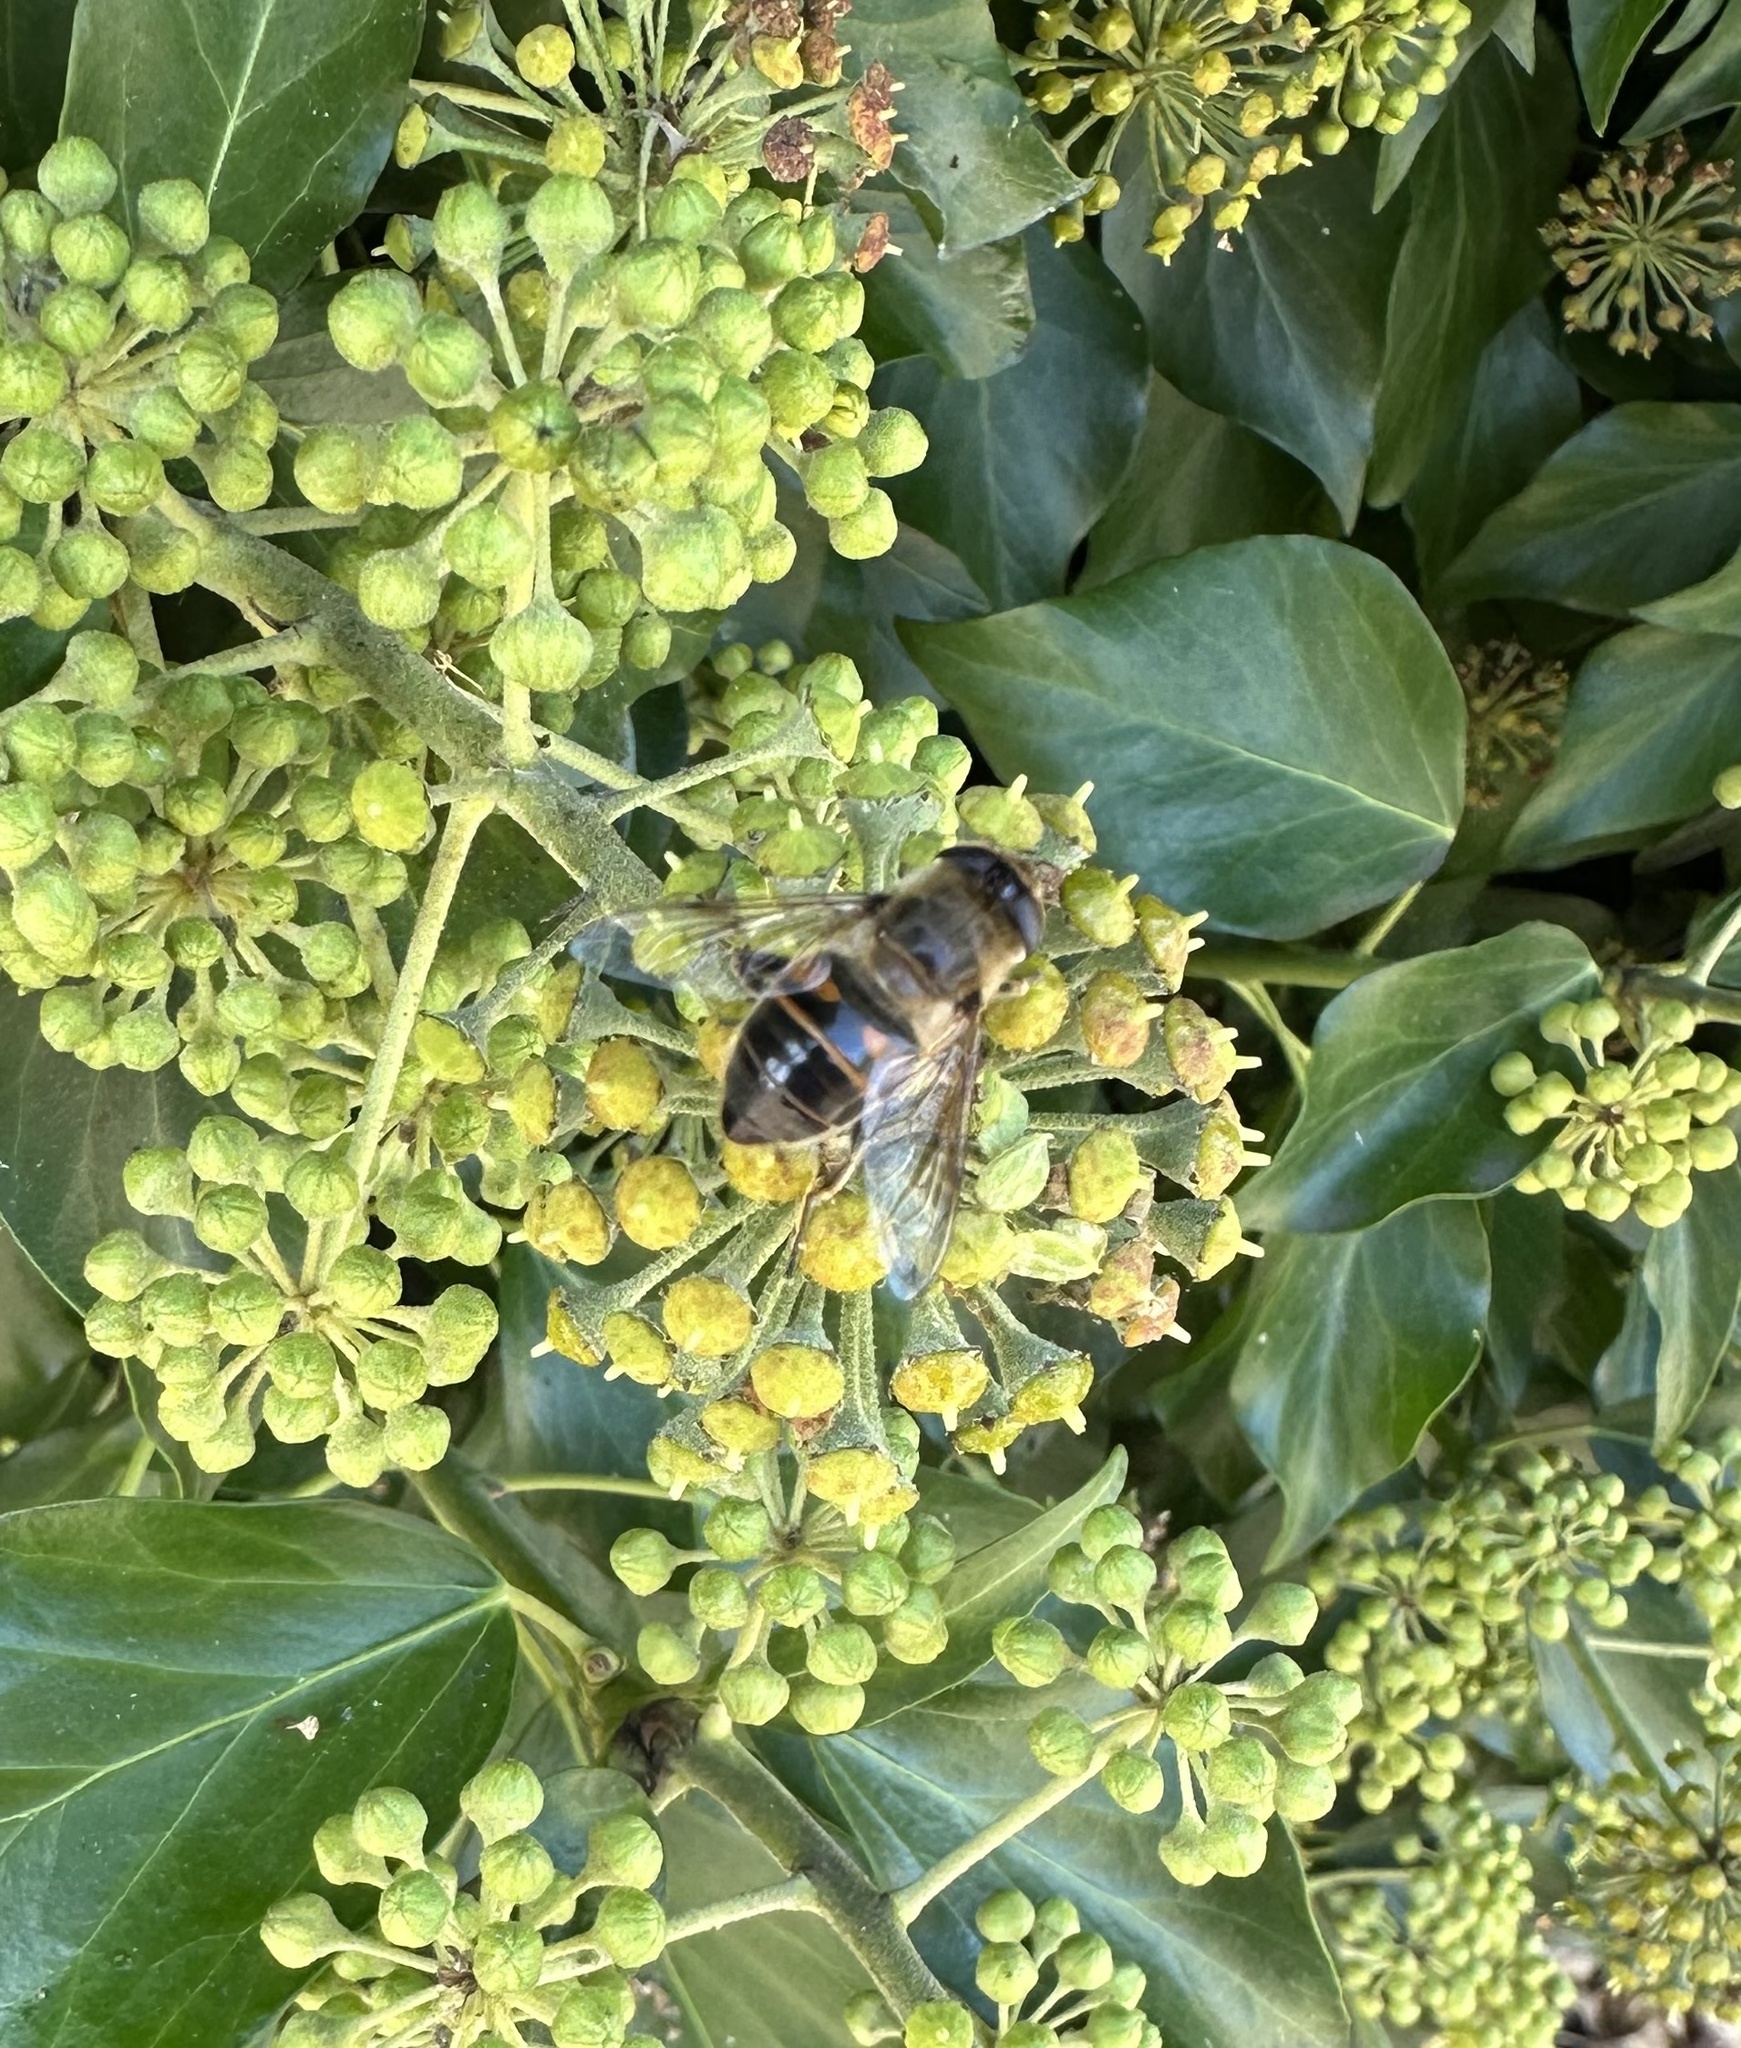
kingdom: Animalia
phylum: Arthropoda
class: Insecta
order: Diptera
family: Syrphidae
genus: Eristalis
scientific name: Eristalis tenax
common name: Drone fly
